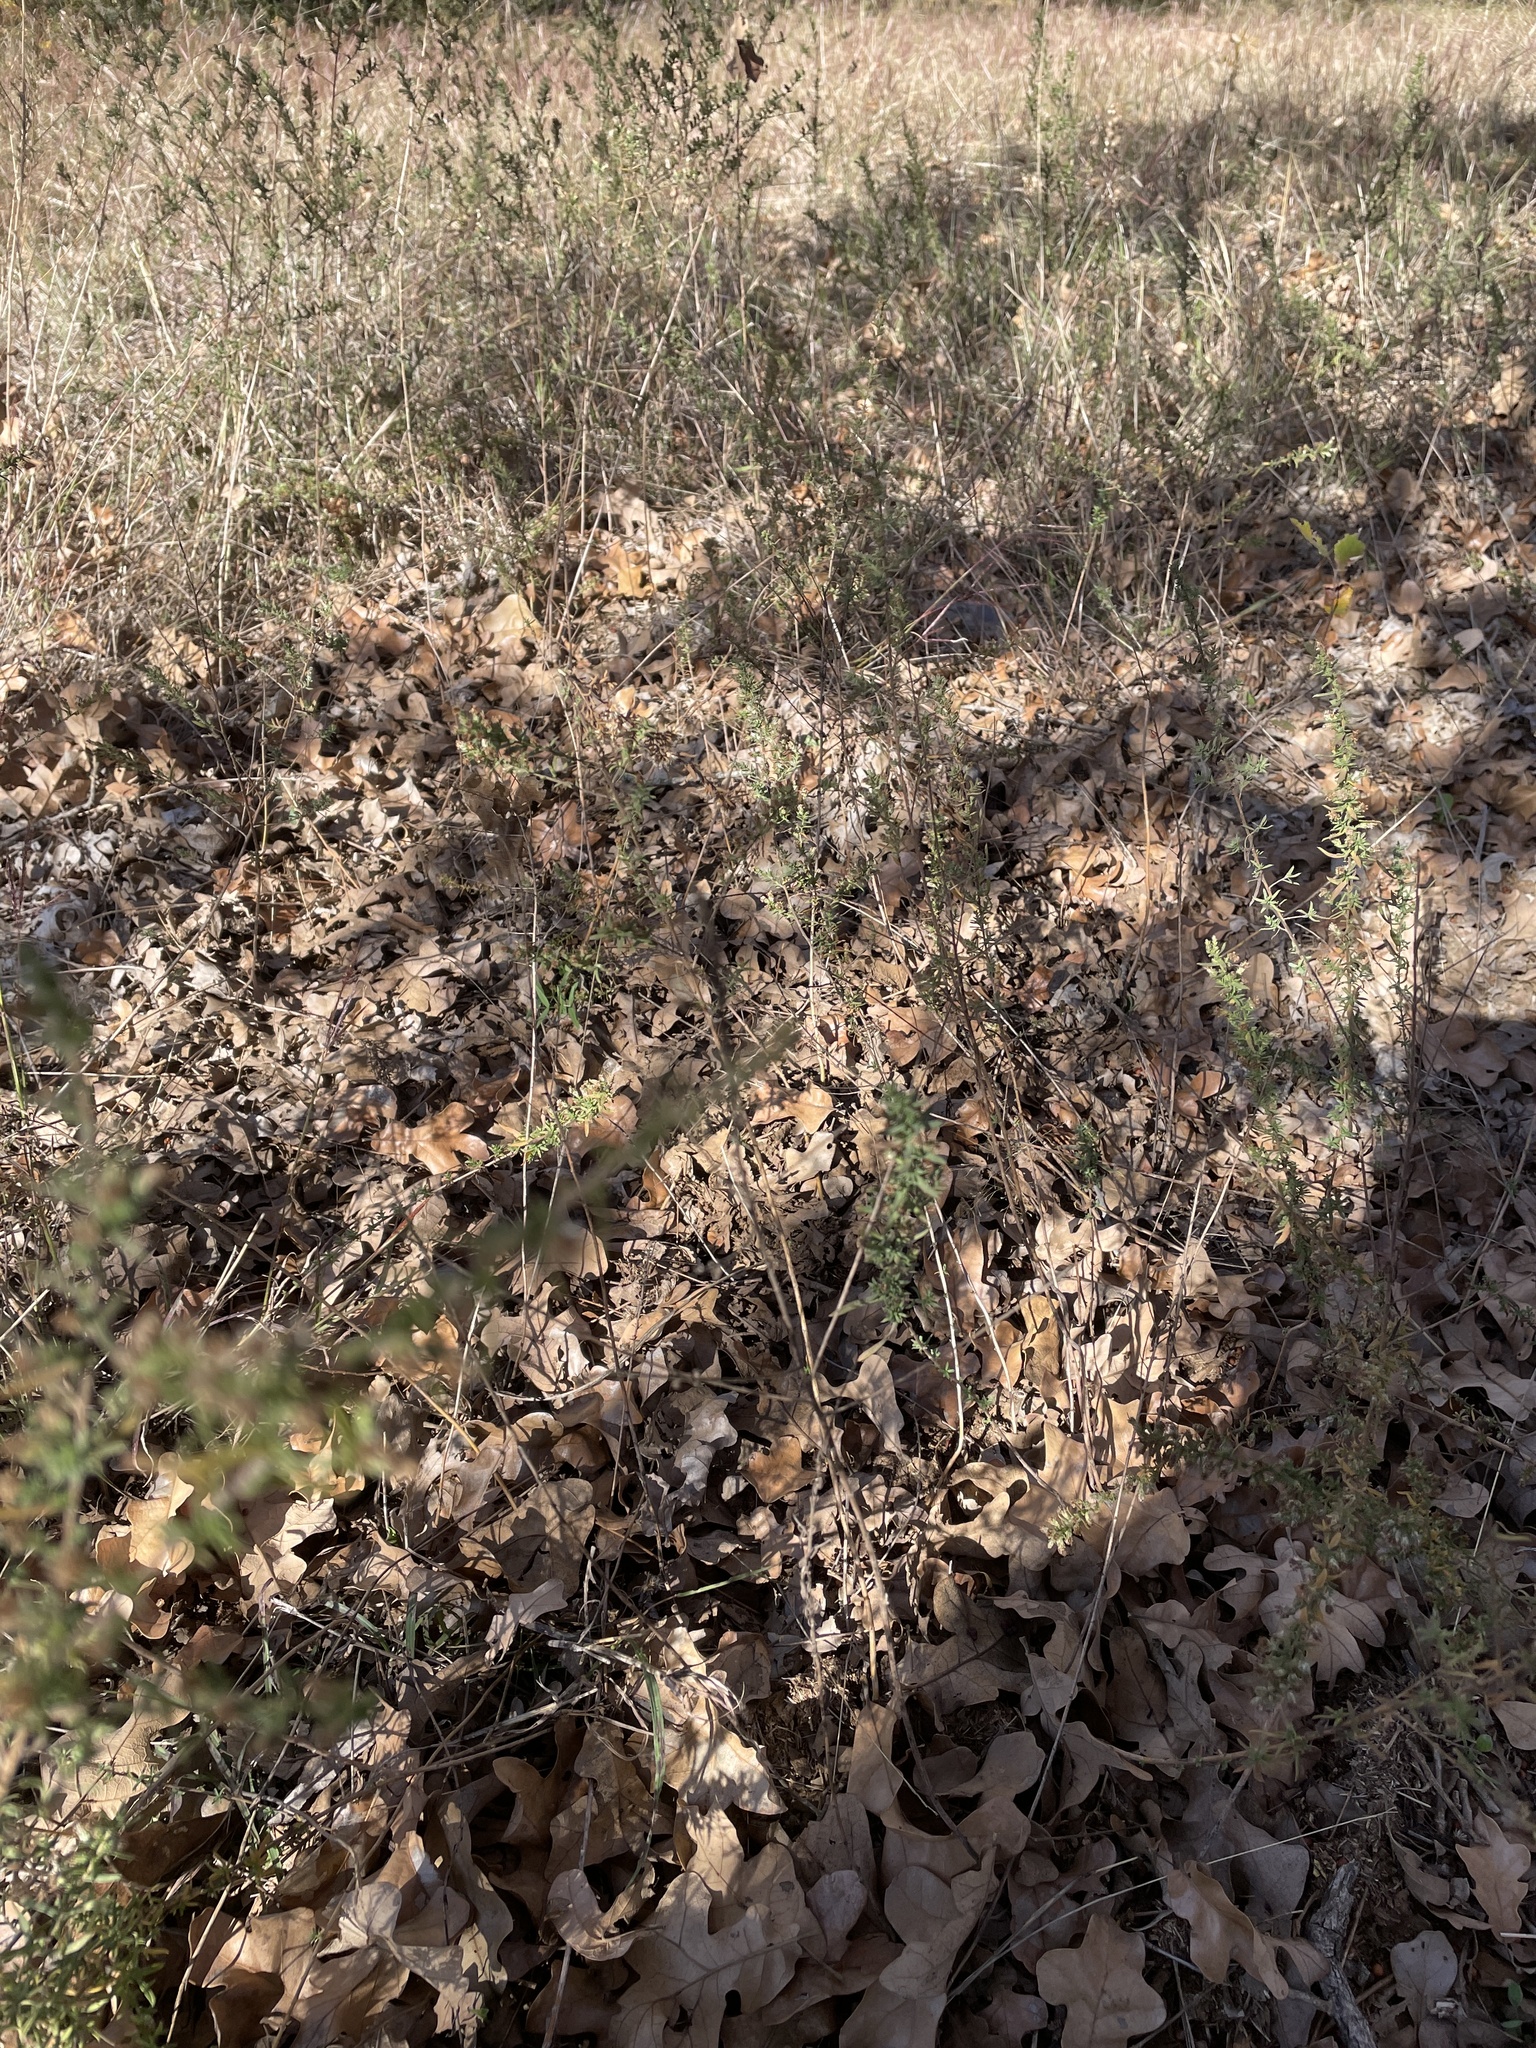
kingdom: Plantae
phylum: Tracheophyta
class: Magnoliopsida
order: Asterales
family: Asteraceae
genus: Symphyotrichum
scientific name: Symphyotrichum ericoides
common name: Heath aster
